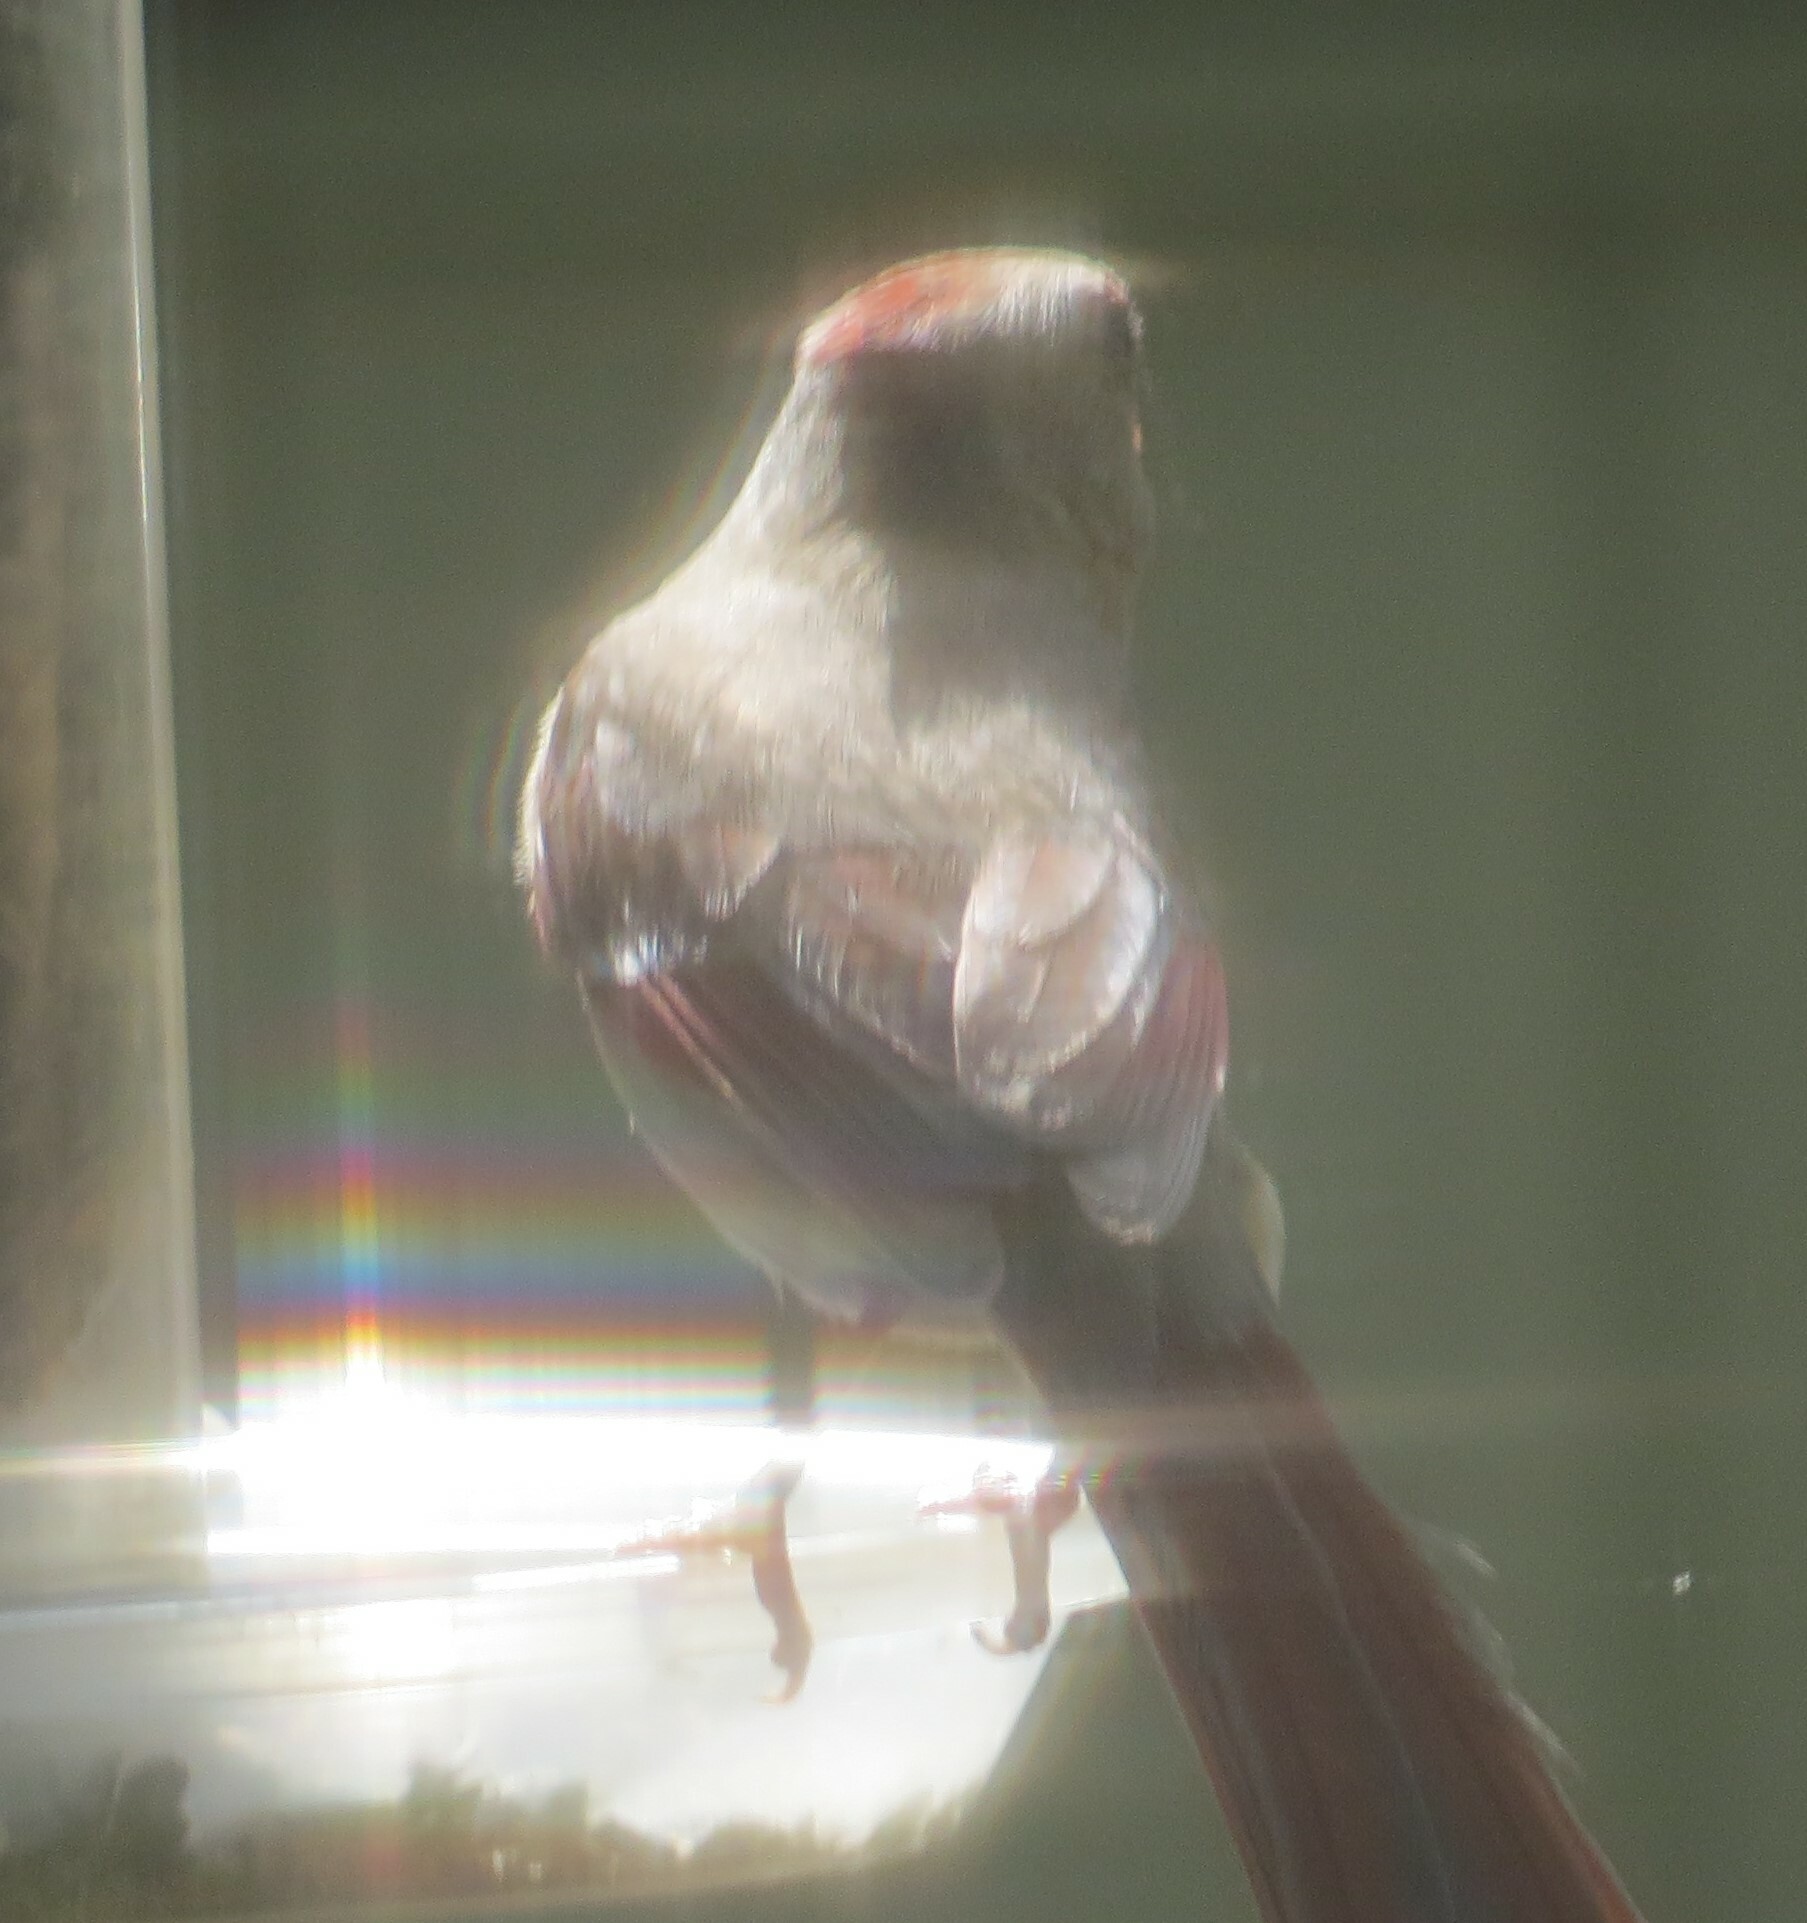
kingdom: Animalia
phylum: Chordata
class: Aves
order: Passeriformes
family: Cardinalidae
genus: Cardinalis
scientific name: Cardinalis cardinalis
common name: Northern cardinal
